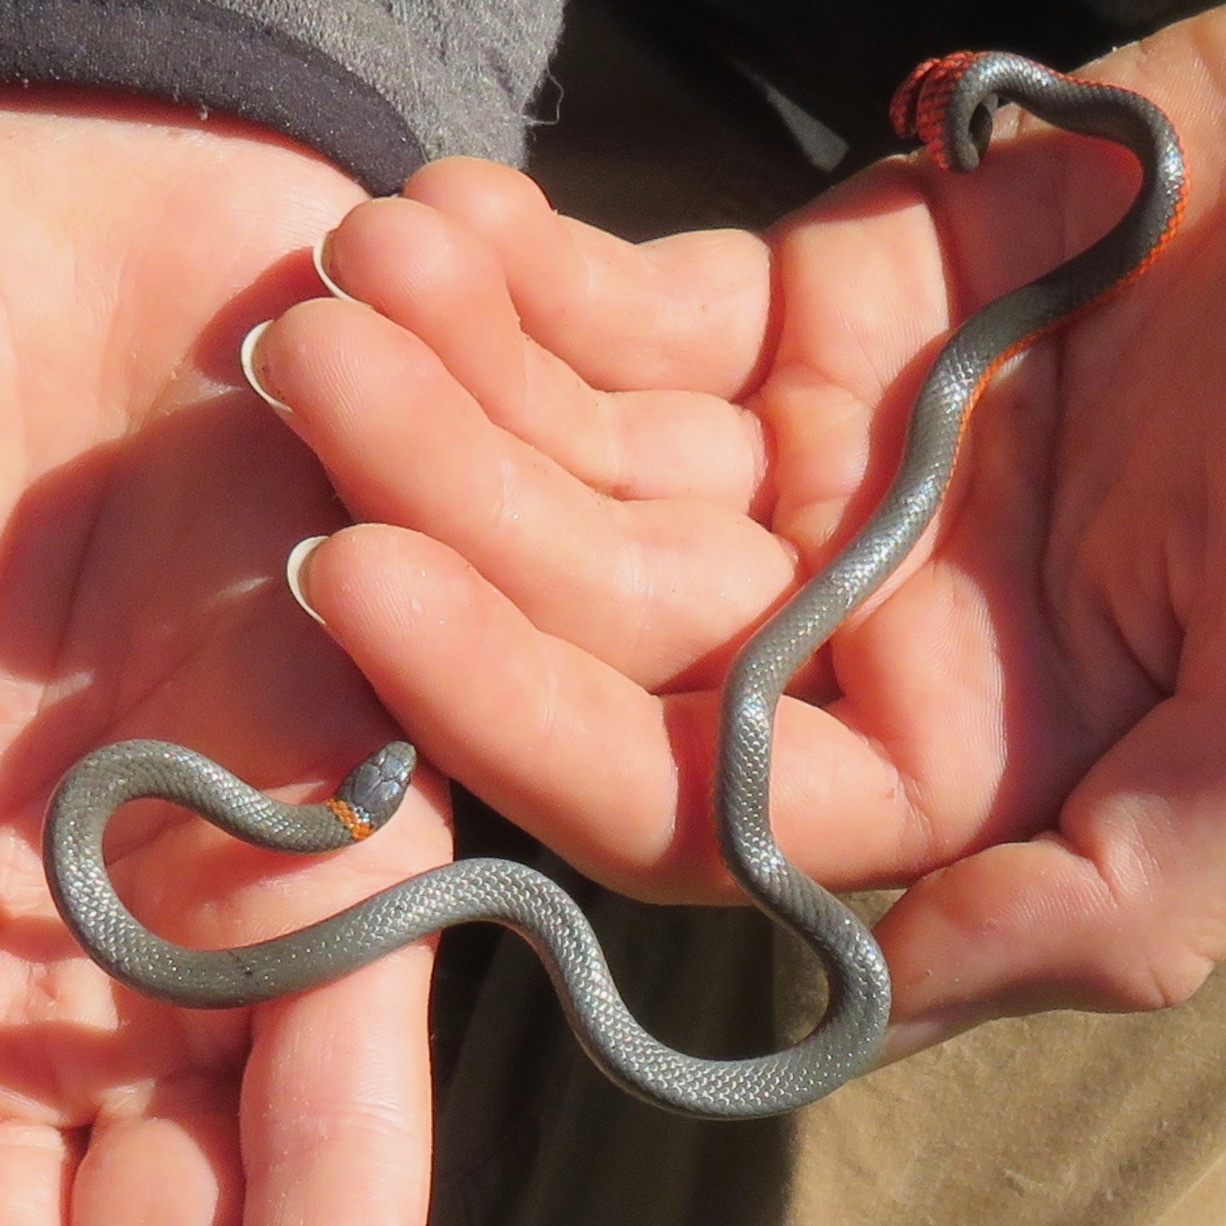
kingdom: Animalia
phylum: Chordata
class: Squamata
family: Colubridae
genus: Diadophis
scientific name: Diadophis punctatus
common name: Ringneck snake
